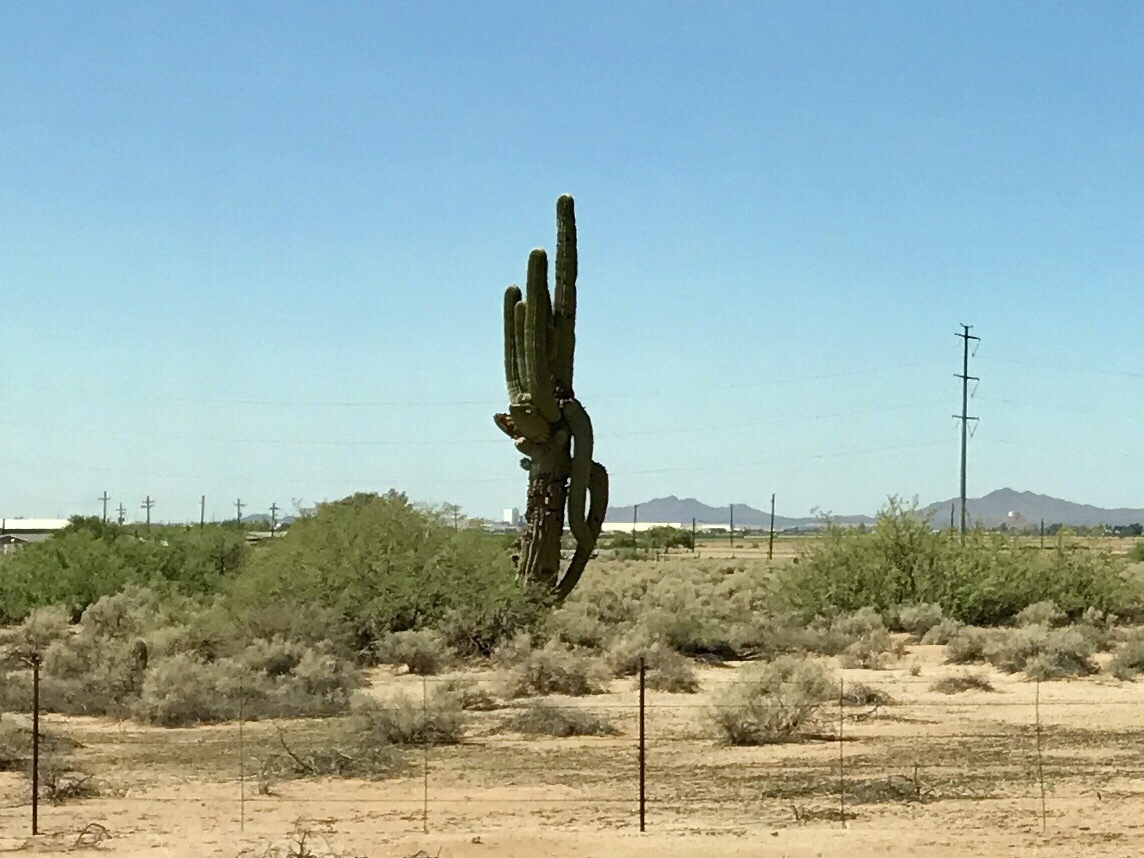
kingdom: Plantae
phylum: Tracheophyta
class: Magnoliopsida
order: Caryophyllales
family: Cactaceae
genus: Carnegiea
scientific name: Carnegiea gigantea
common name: Saguaro
